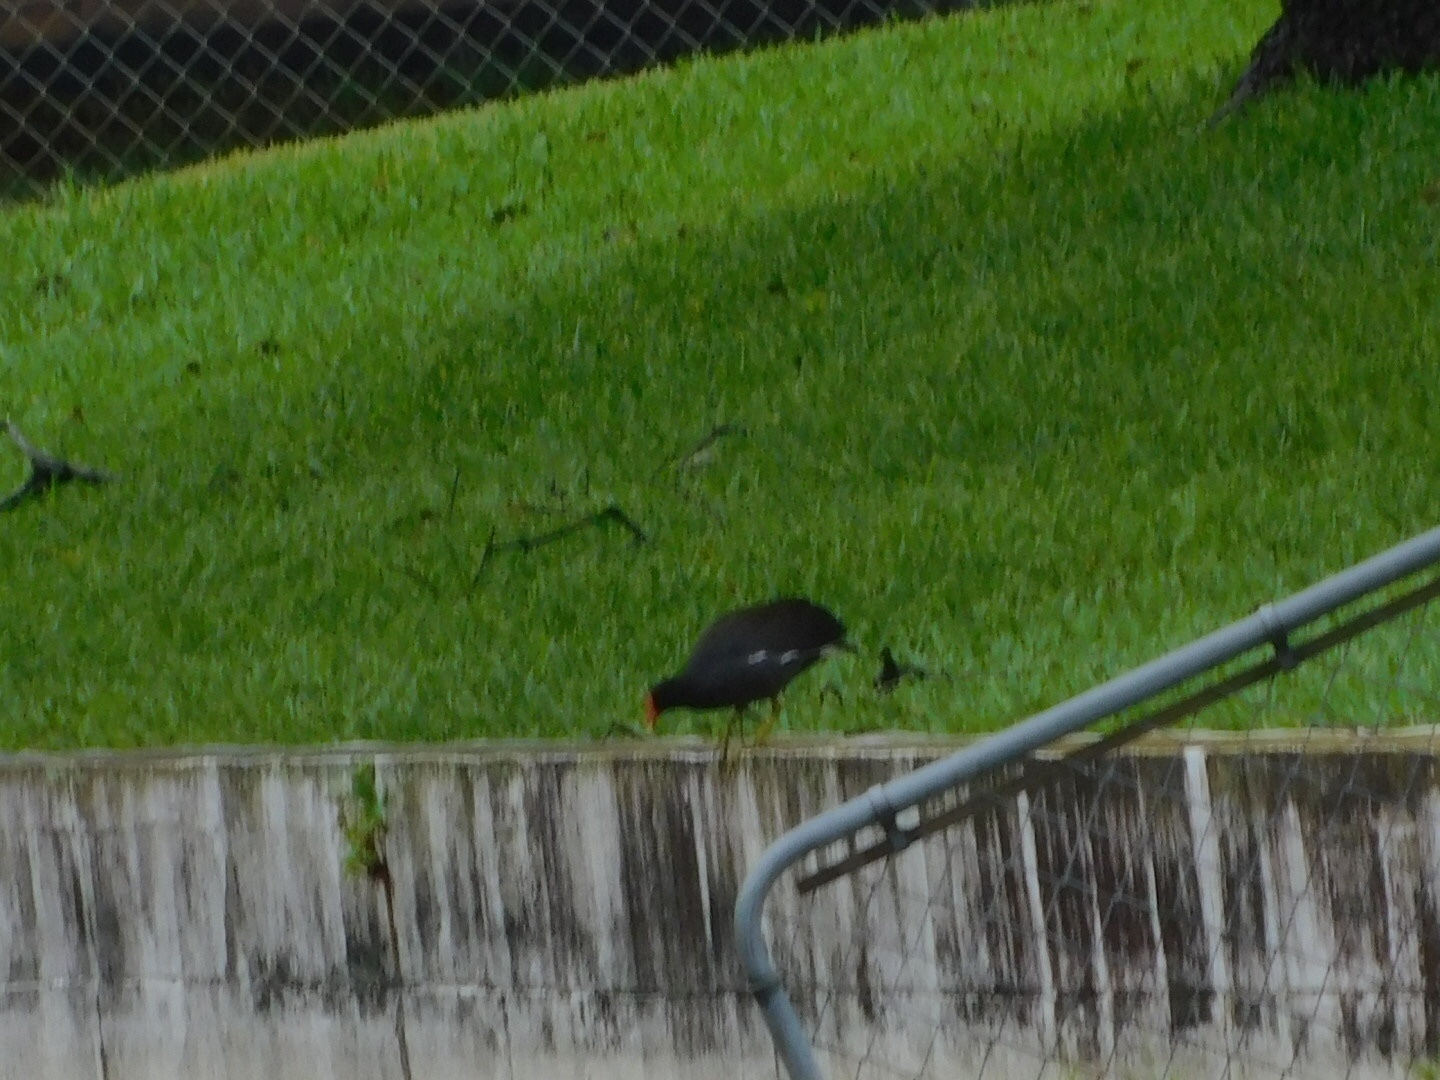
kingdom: Animalia
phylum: Chordata
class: Aves
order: Gruiformes
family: Rallidae
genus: Gallinula
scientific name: Gallinula chloropus
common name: Common moorhen
